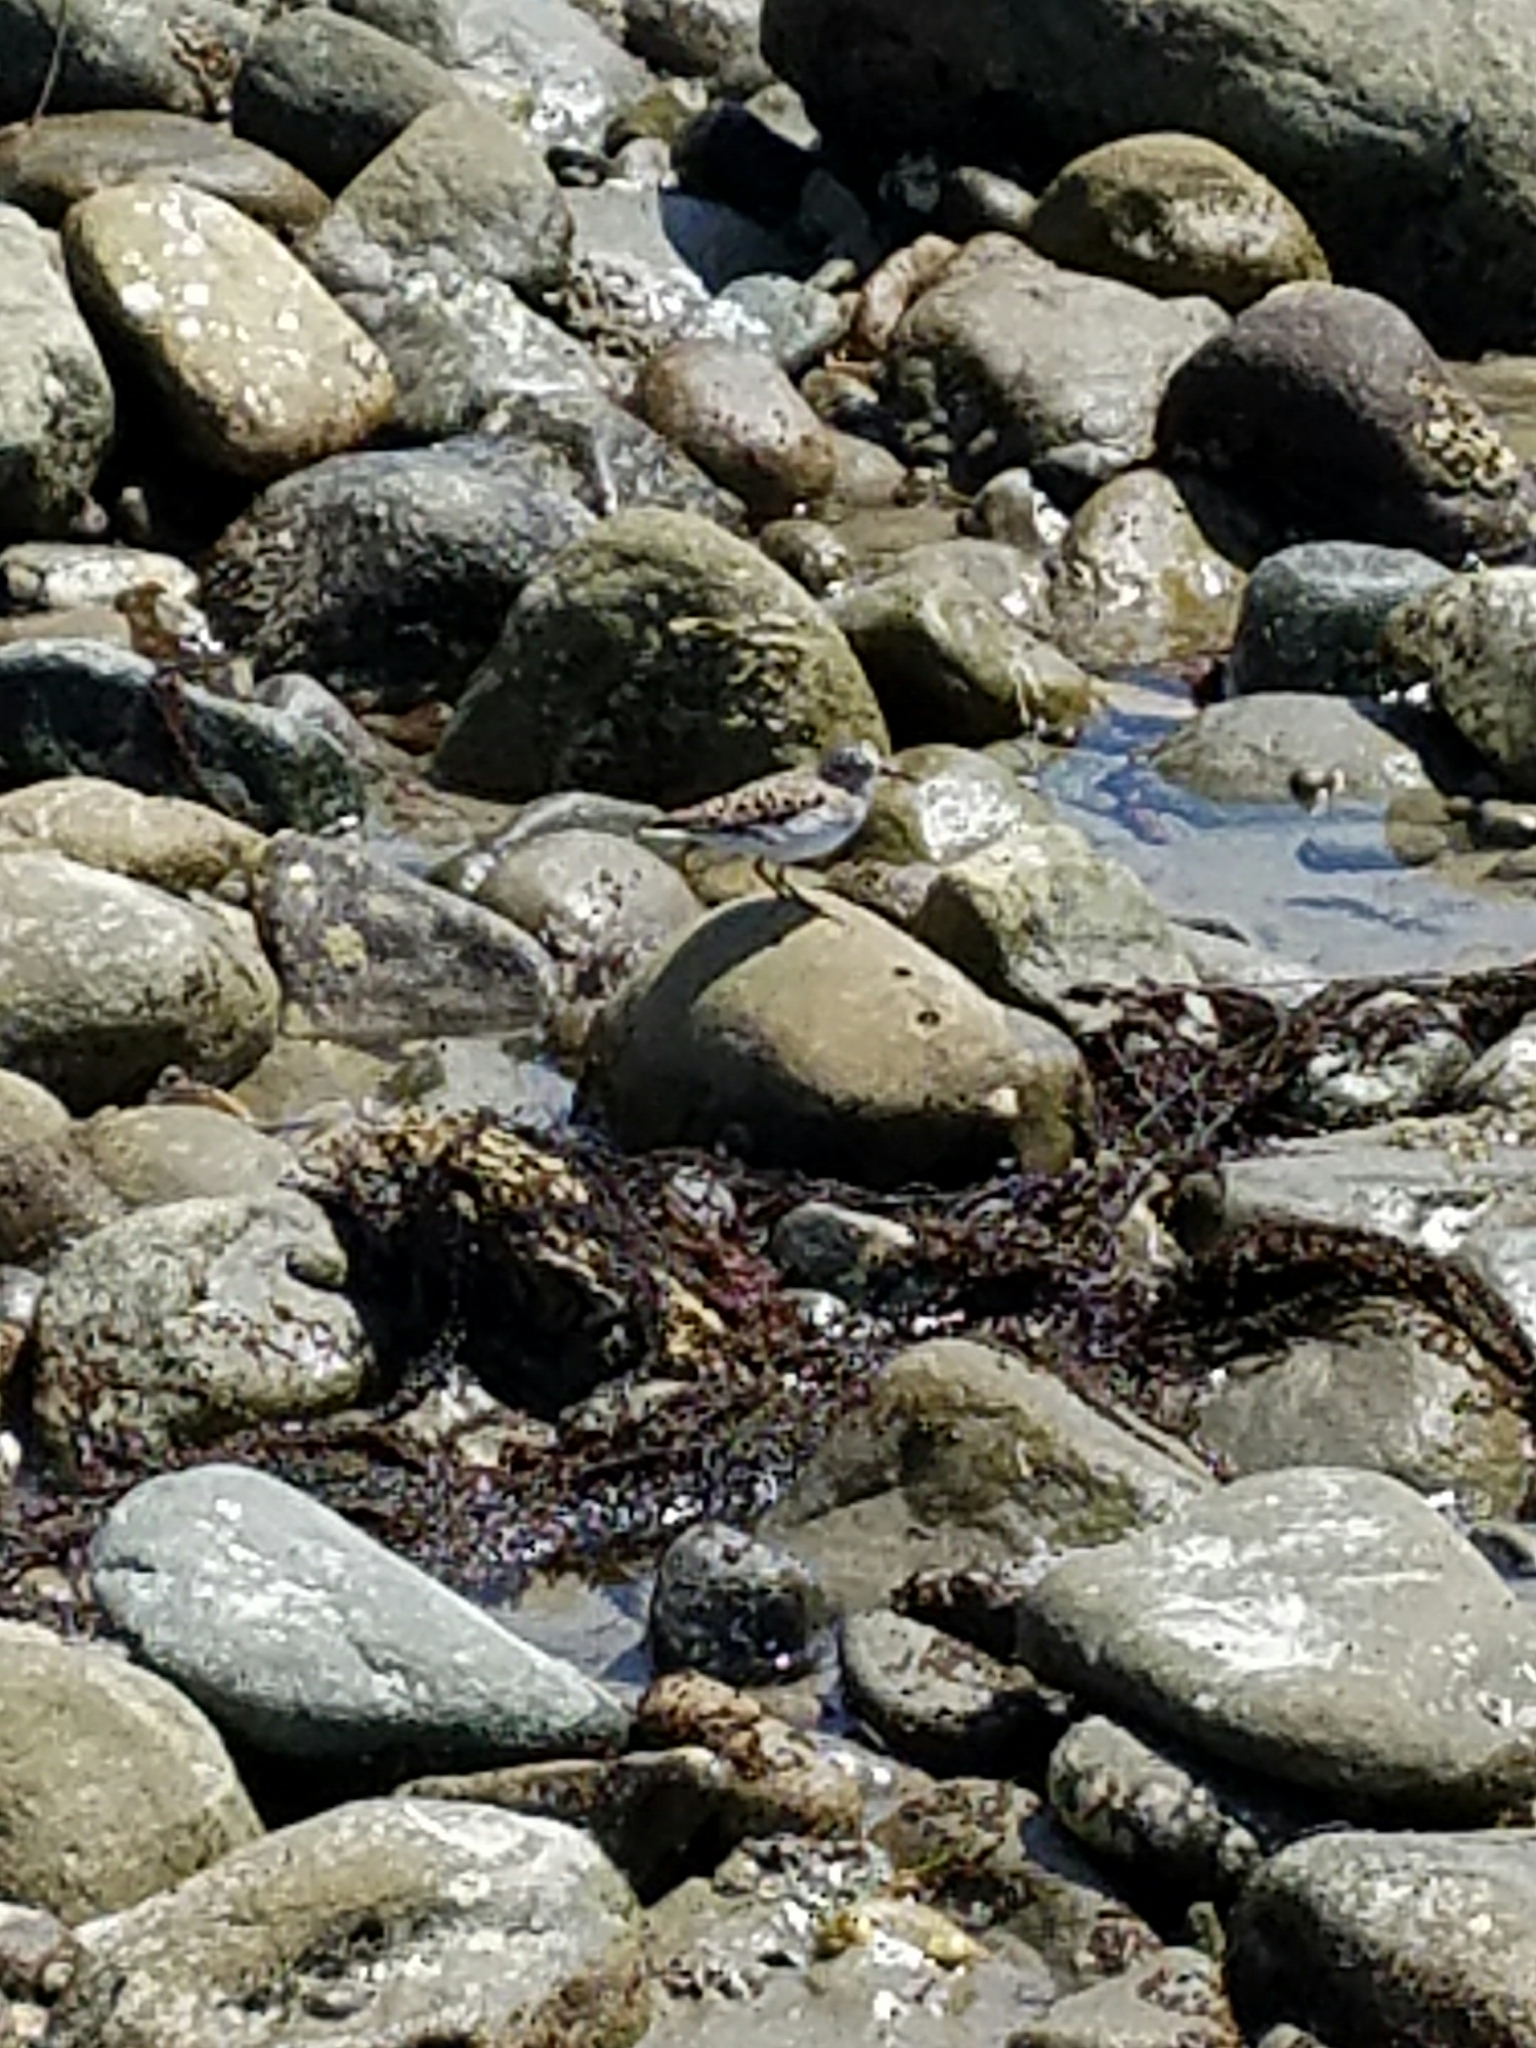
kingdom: Animalia
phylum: Chordata
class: Aves
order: Charadriiformes
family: Scolopacidae
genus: Calidris
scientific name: Calidris minutilla
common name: Least sandpiper
